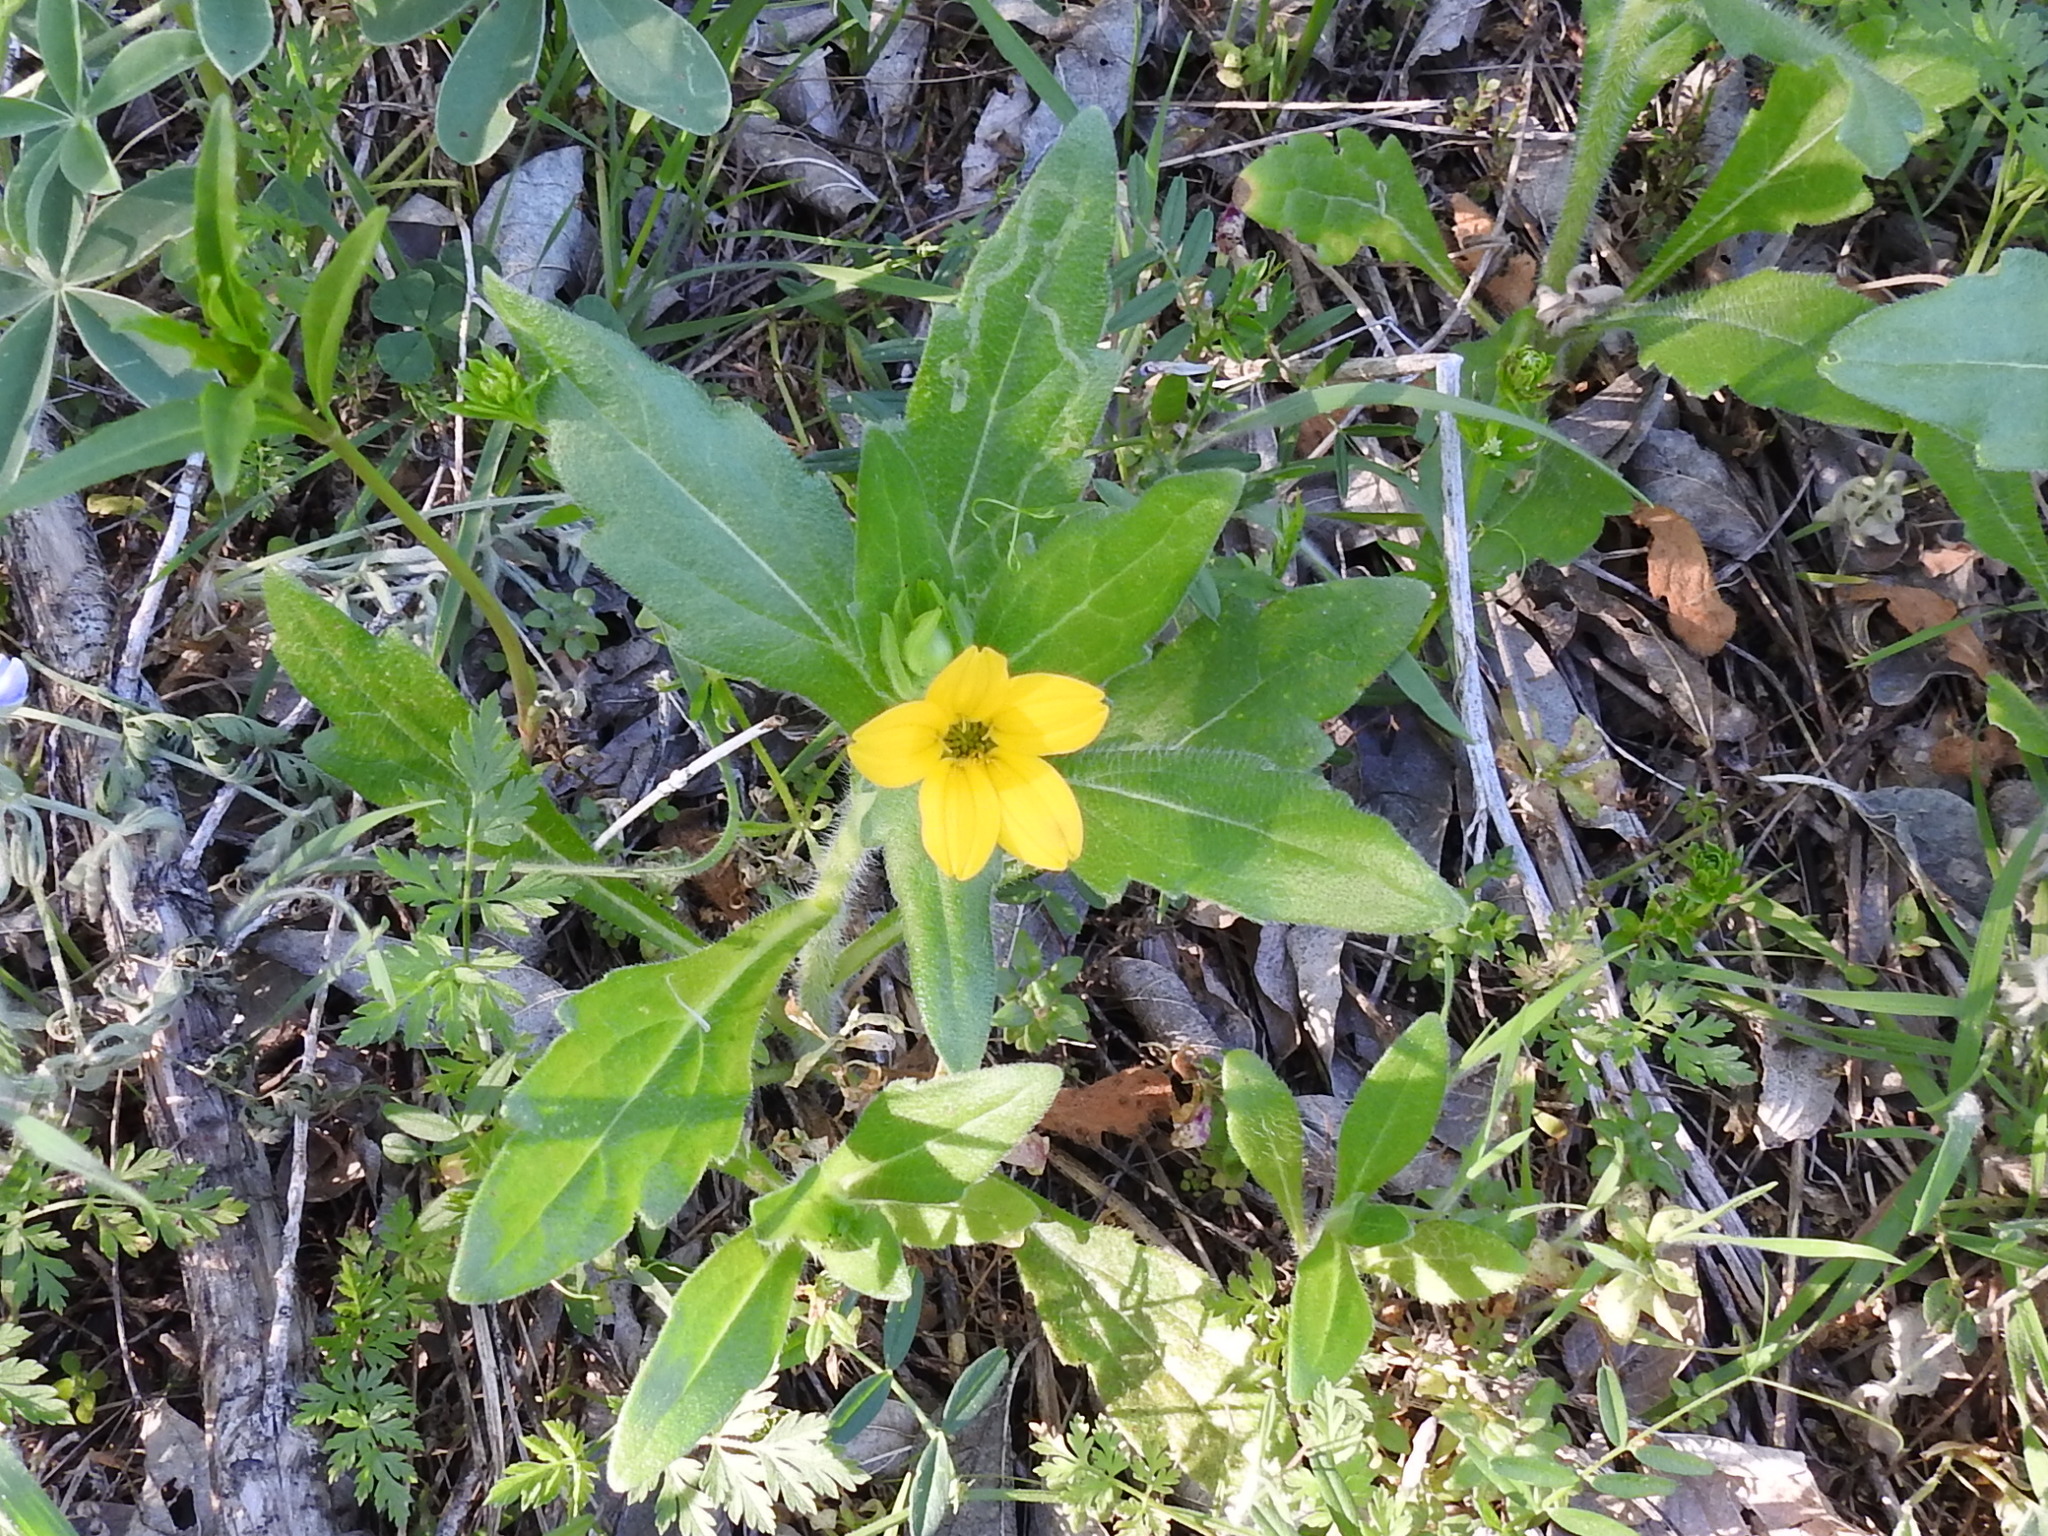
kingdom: Plantae
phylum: Tracheophyta
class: Magnoliopsida
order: Asterales
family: Asteraceae
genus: Lindheimera
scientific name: Lindheimera texana
